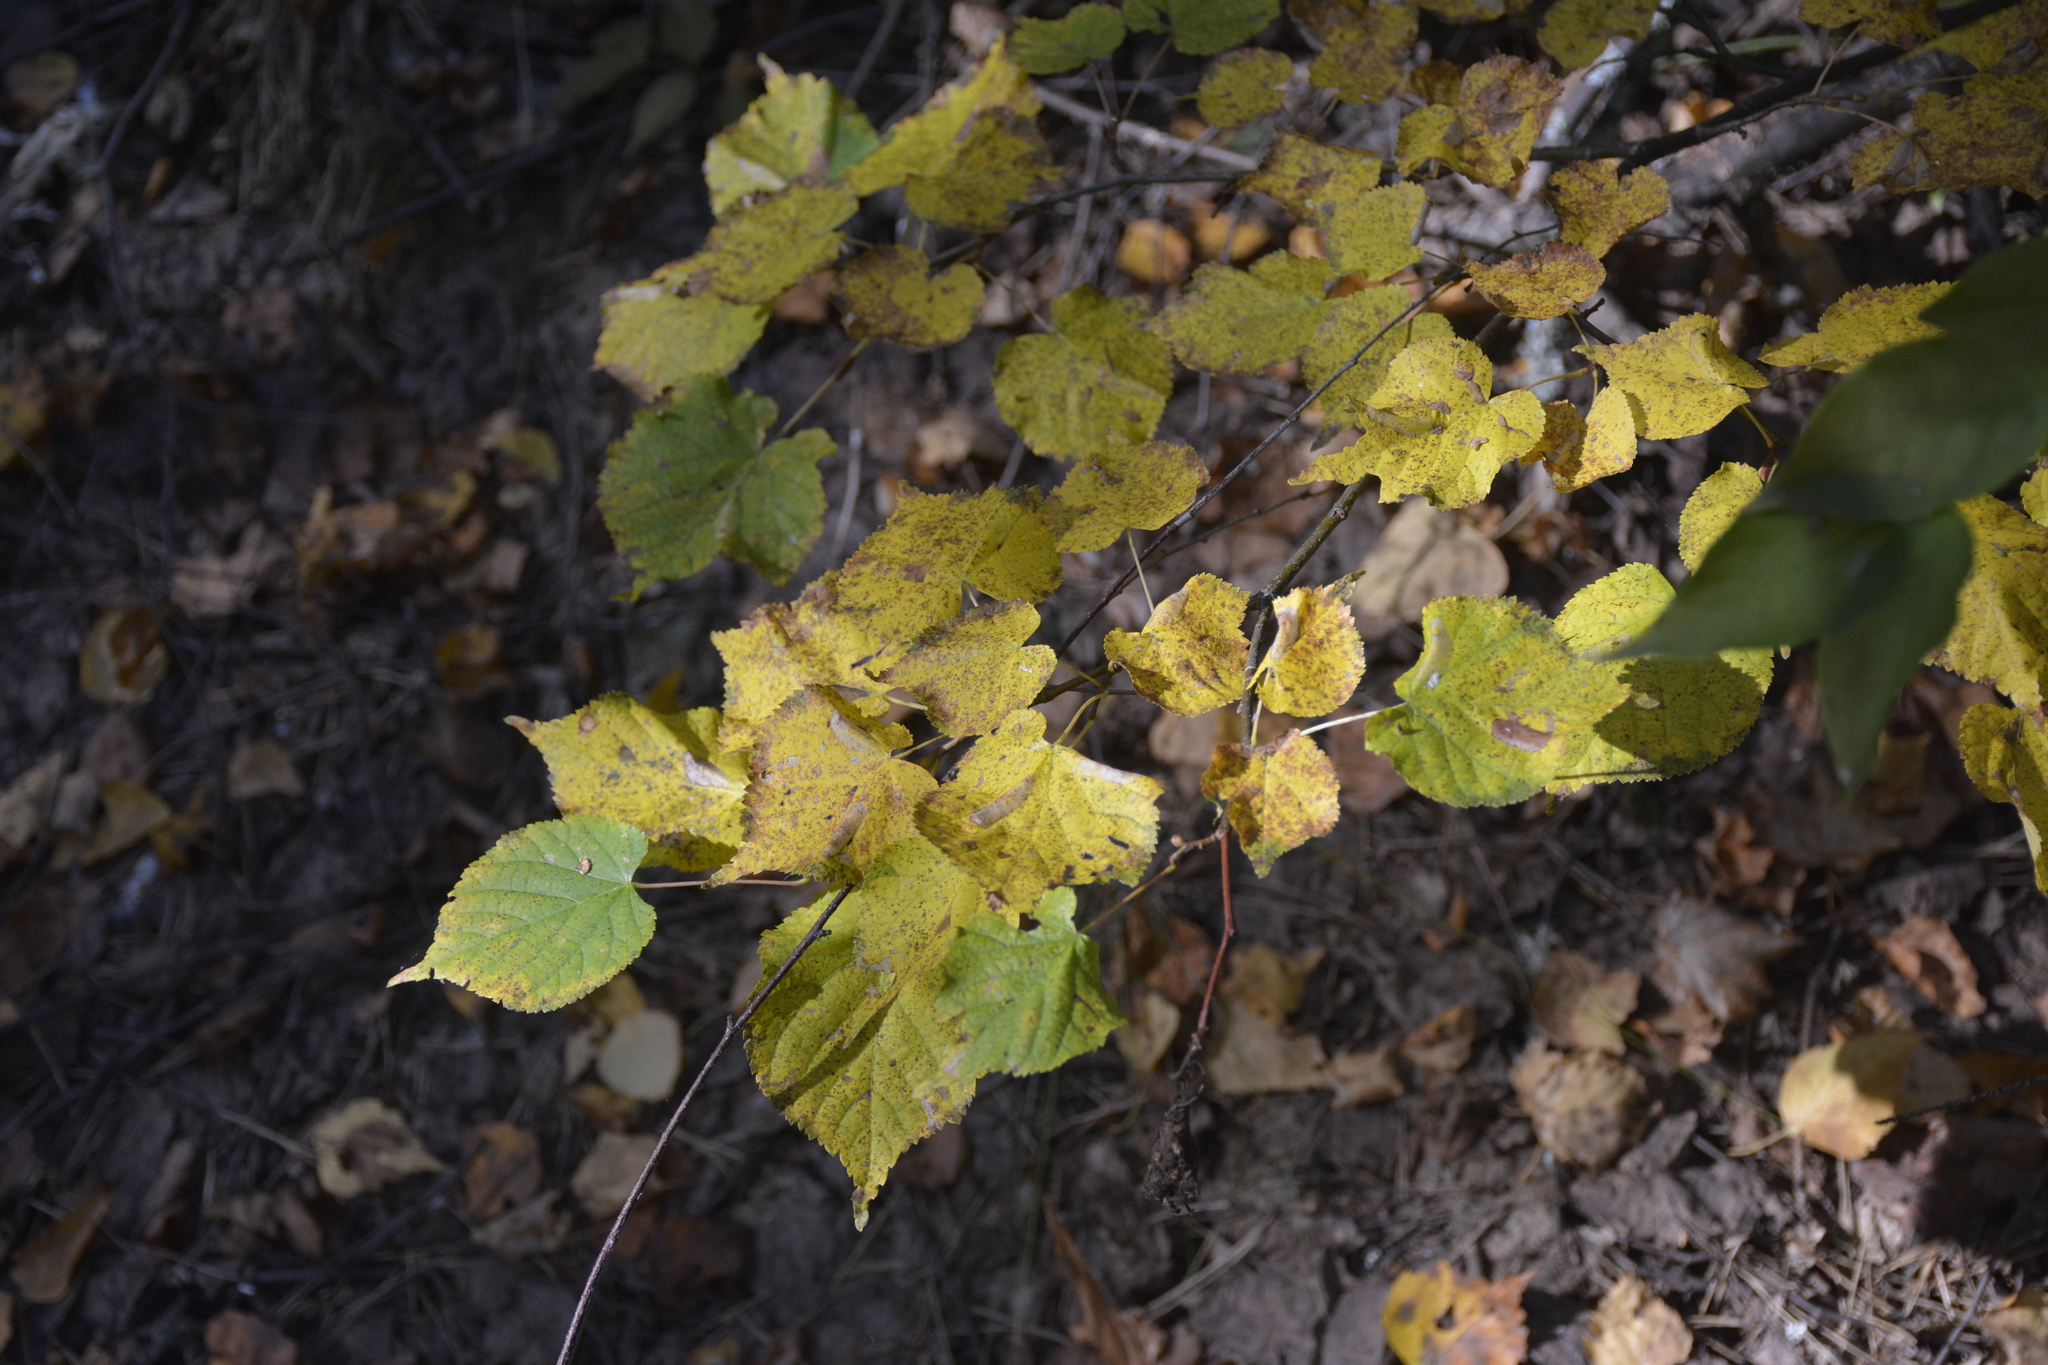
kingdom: Plantae
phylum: Tracheophyta
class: Magnoliopsida
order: Malvales
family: Malvaceae
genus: Tilia
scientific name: Tilia cordata
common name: Small-leaved lime
